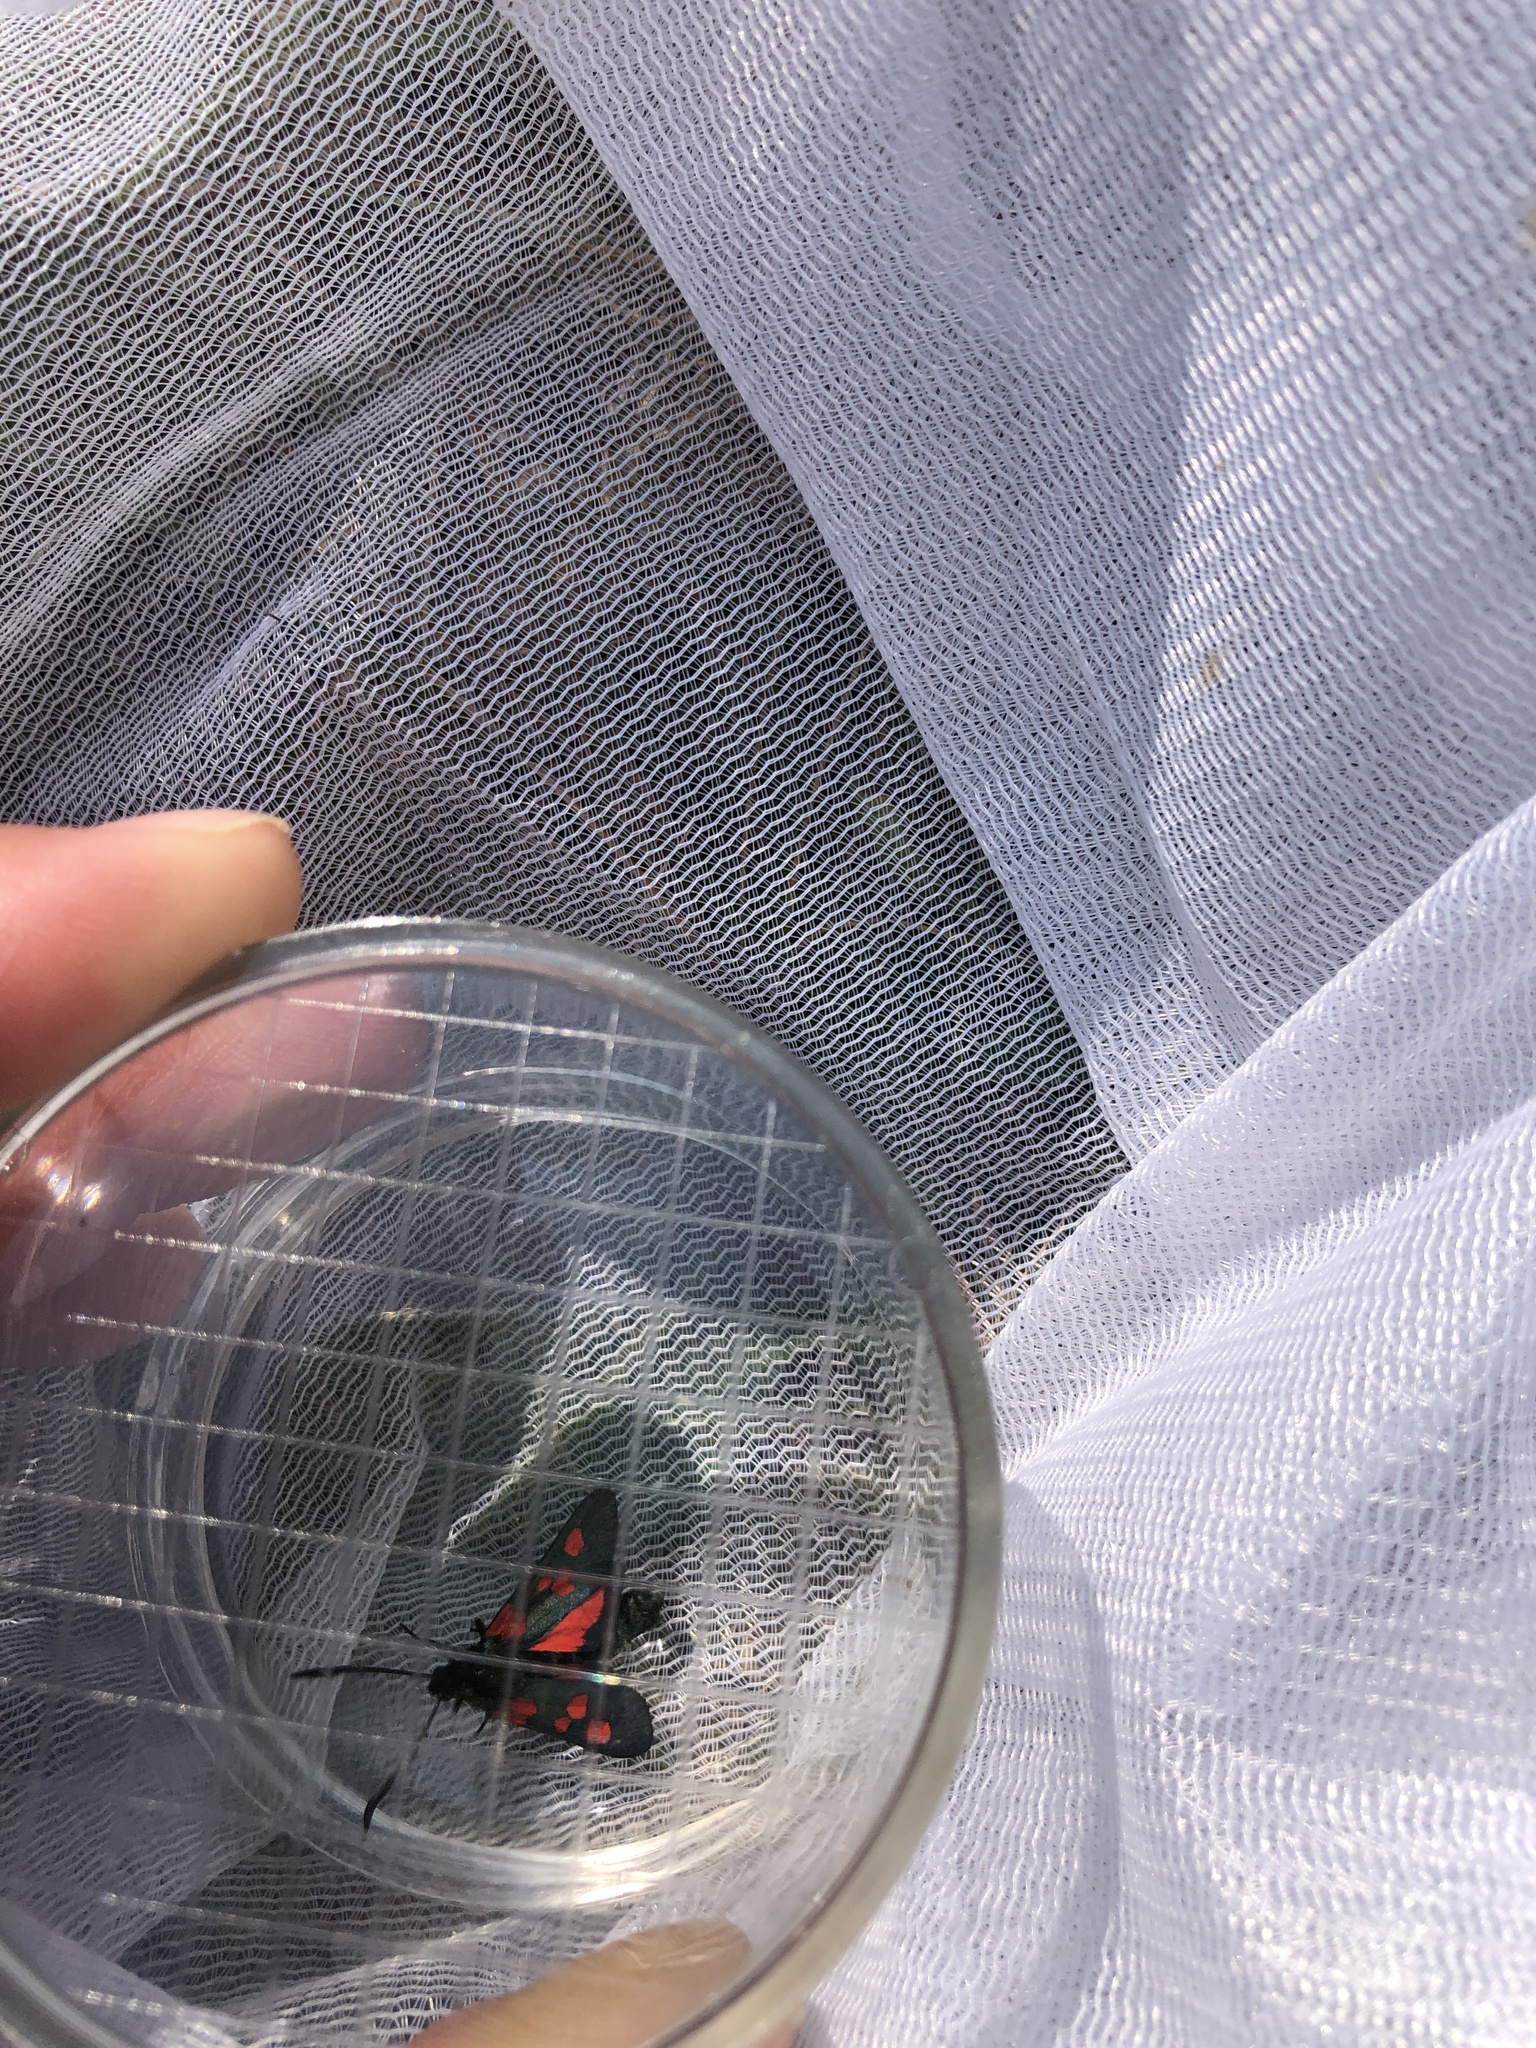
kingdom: Animalia
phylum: Arthropoda
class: Insecta
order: Lepidoptera
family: Zygaenidae
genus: Zygaena
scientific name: Zygaena trifolii
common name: Five-spot burnet
